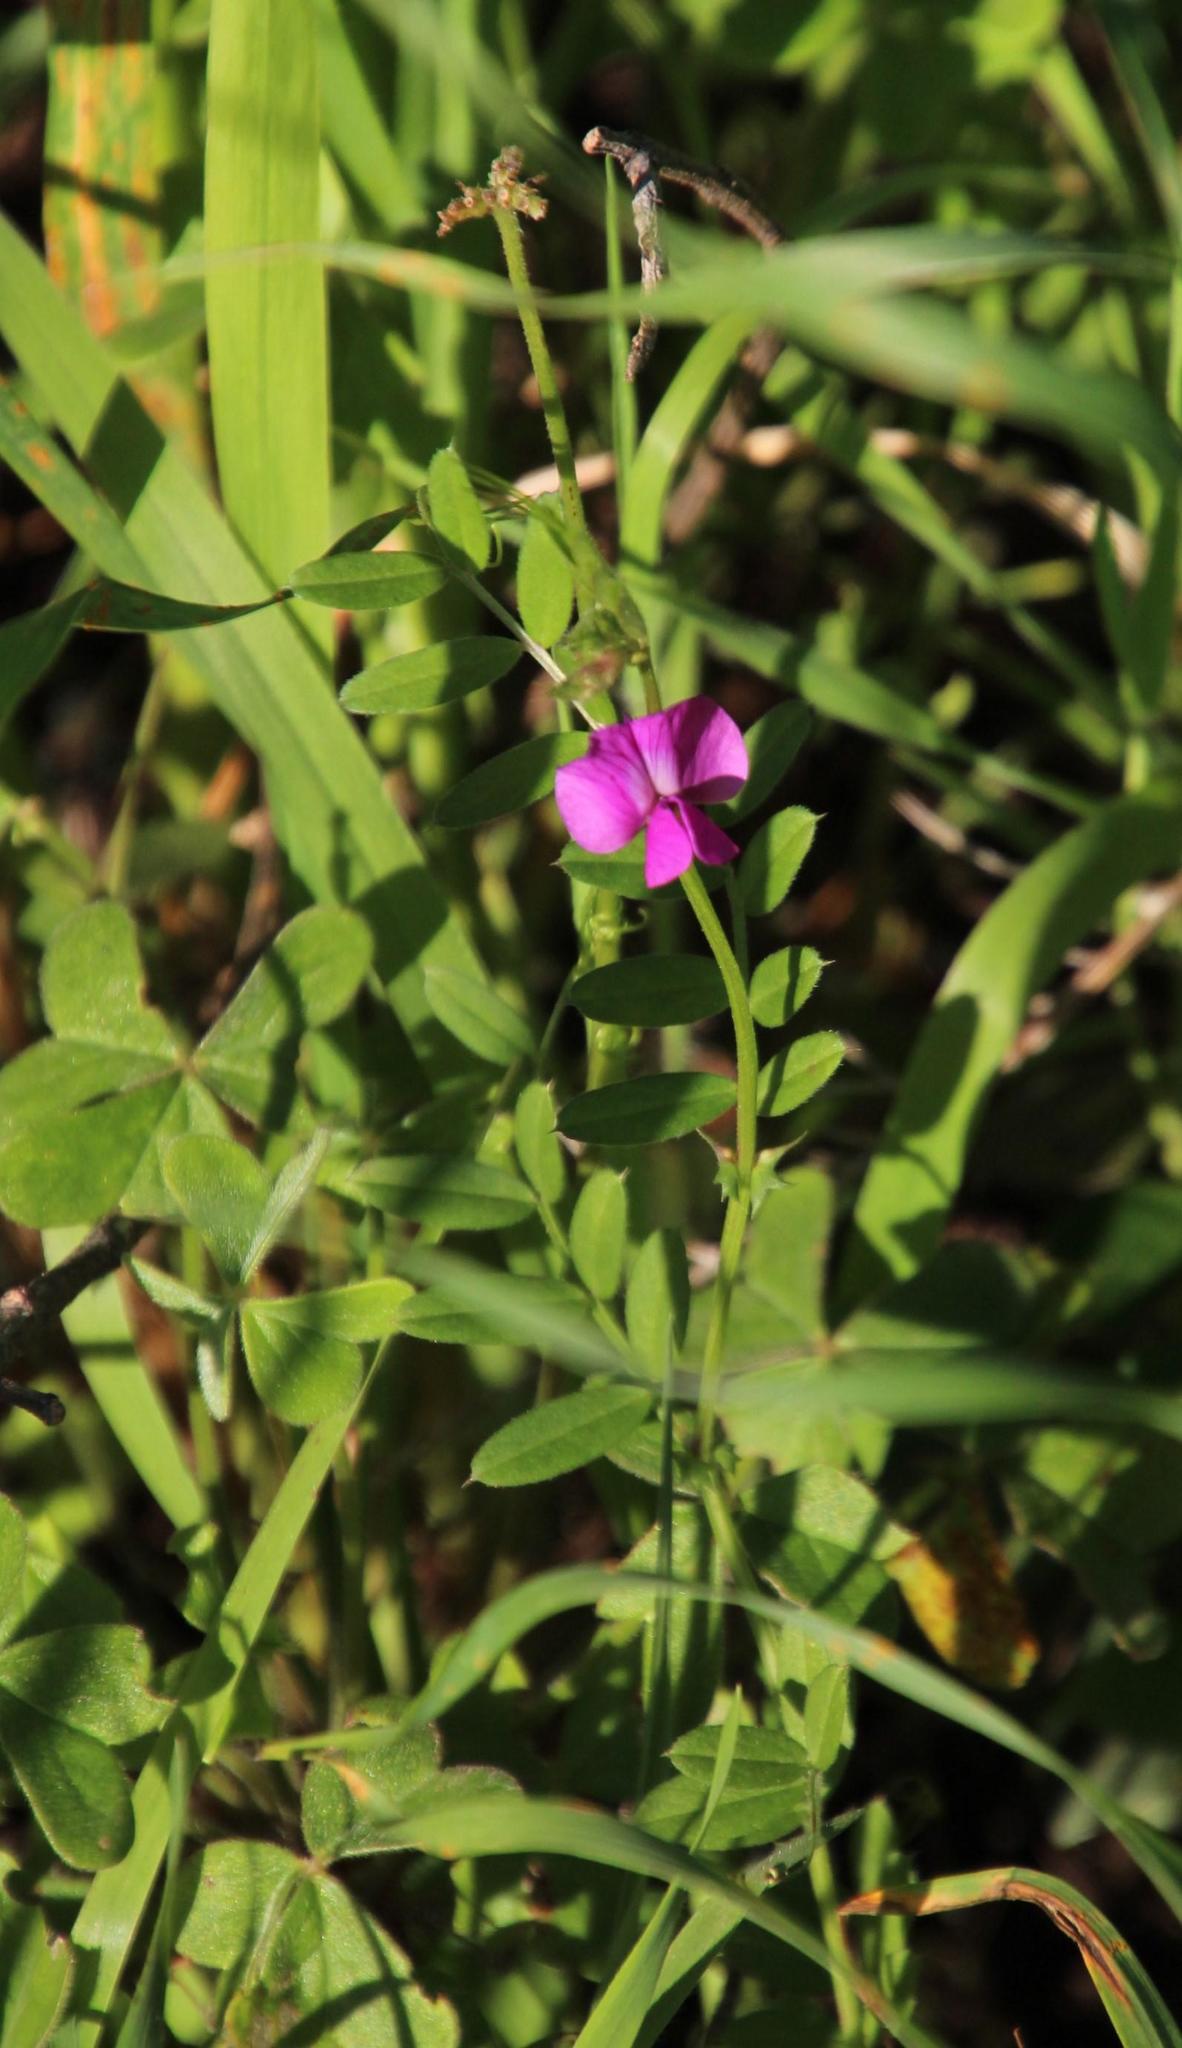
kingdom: Plantae
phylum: Tracheophyta
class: Magnoliopsida
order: Fabales
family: Fabaceae
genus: Vicia
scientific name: Vicia sativa
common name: Garden vetch
